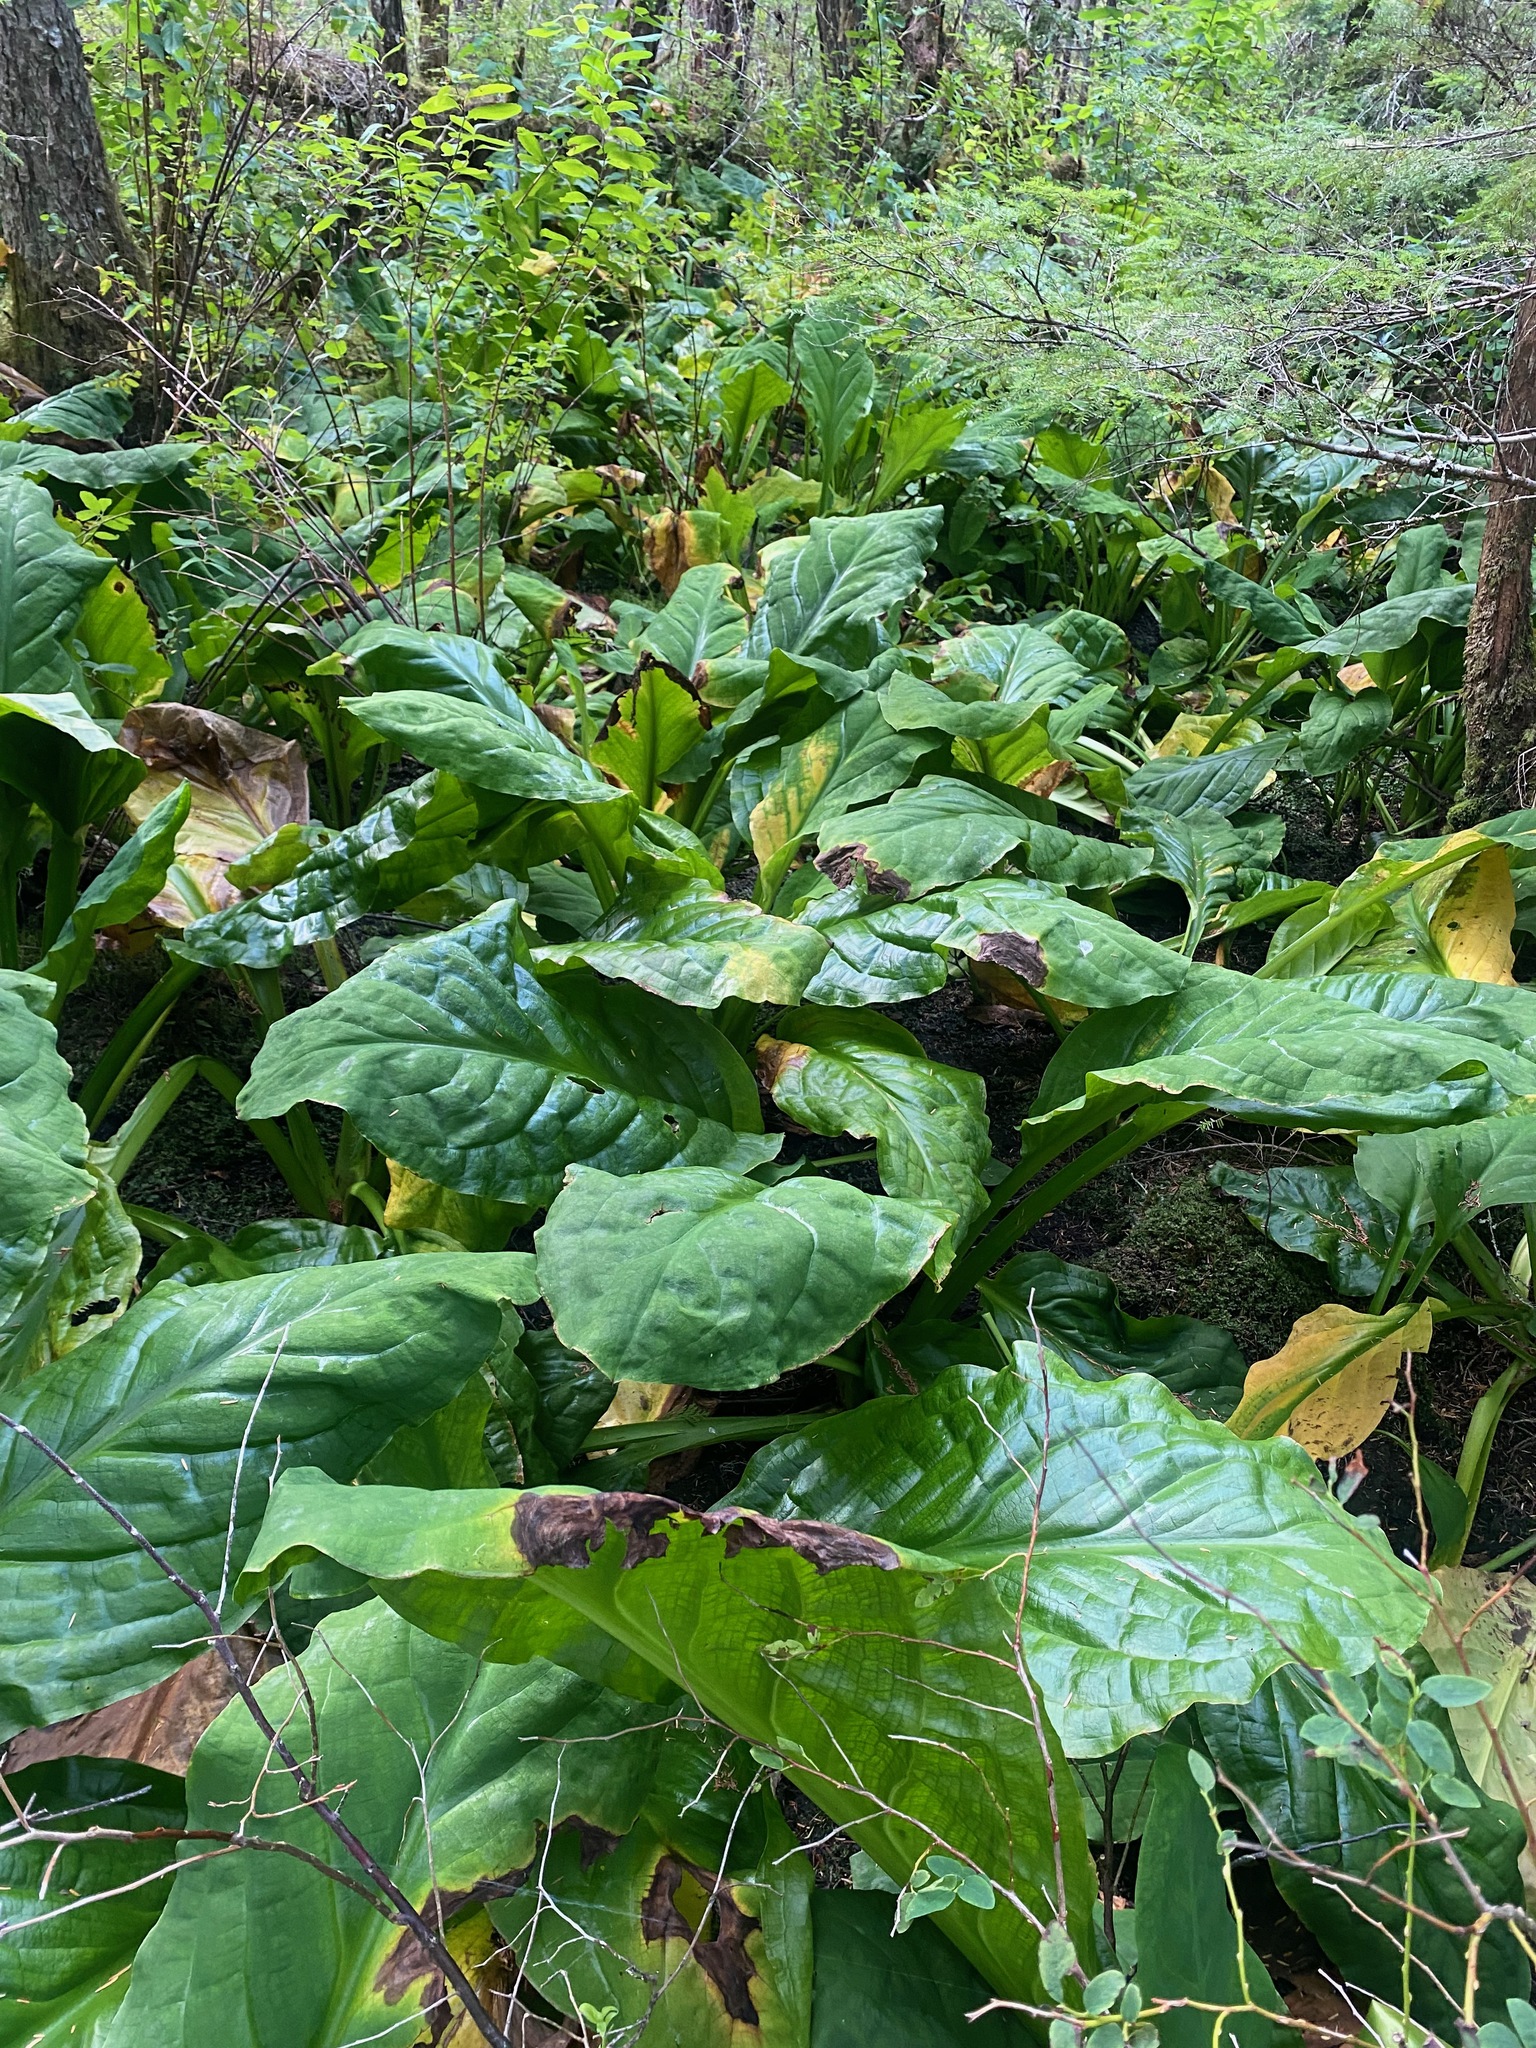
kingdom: Plantae
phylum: Tracheophyta
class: Liliopsida
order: Alismatales
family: Araceae
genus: Lysichiton
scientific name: Lysichiton americanus
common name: American skunk cabbage
